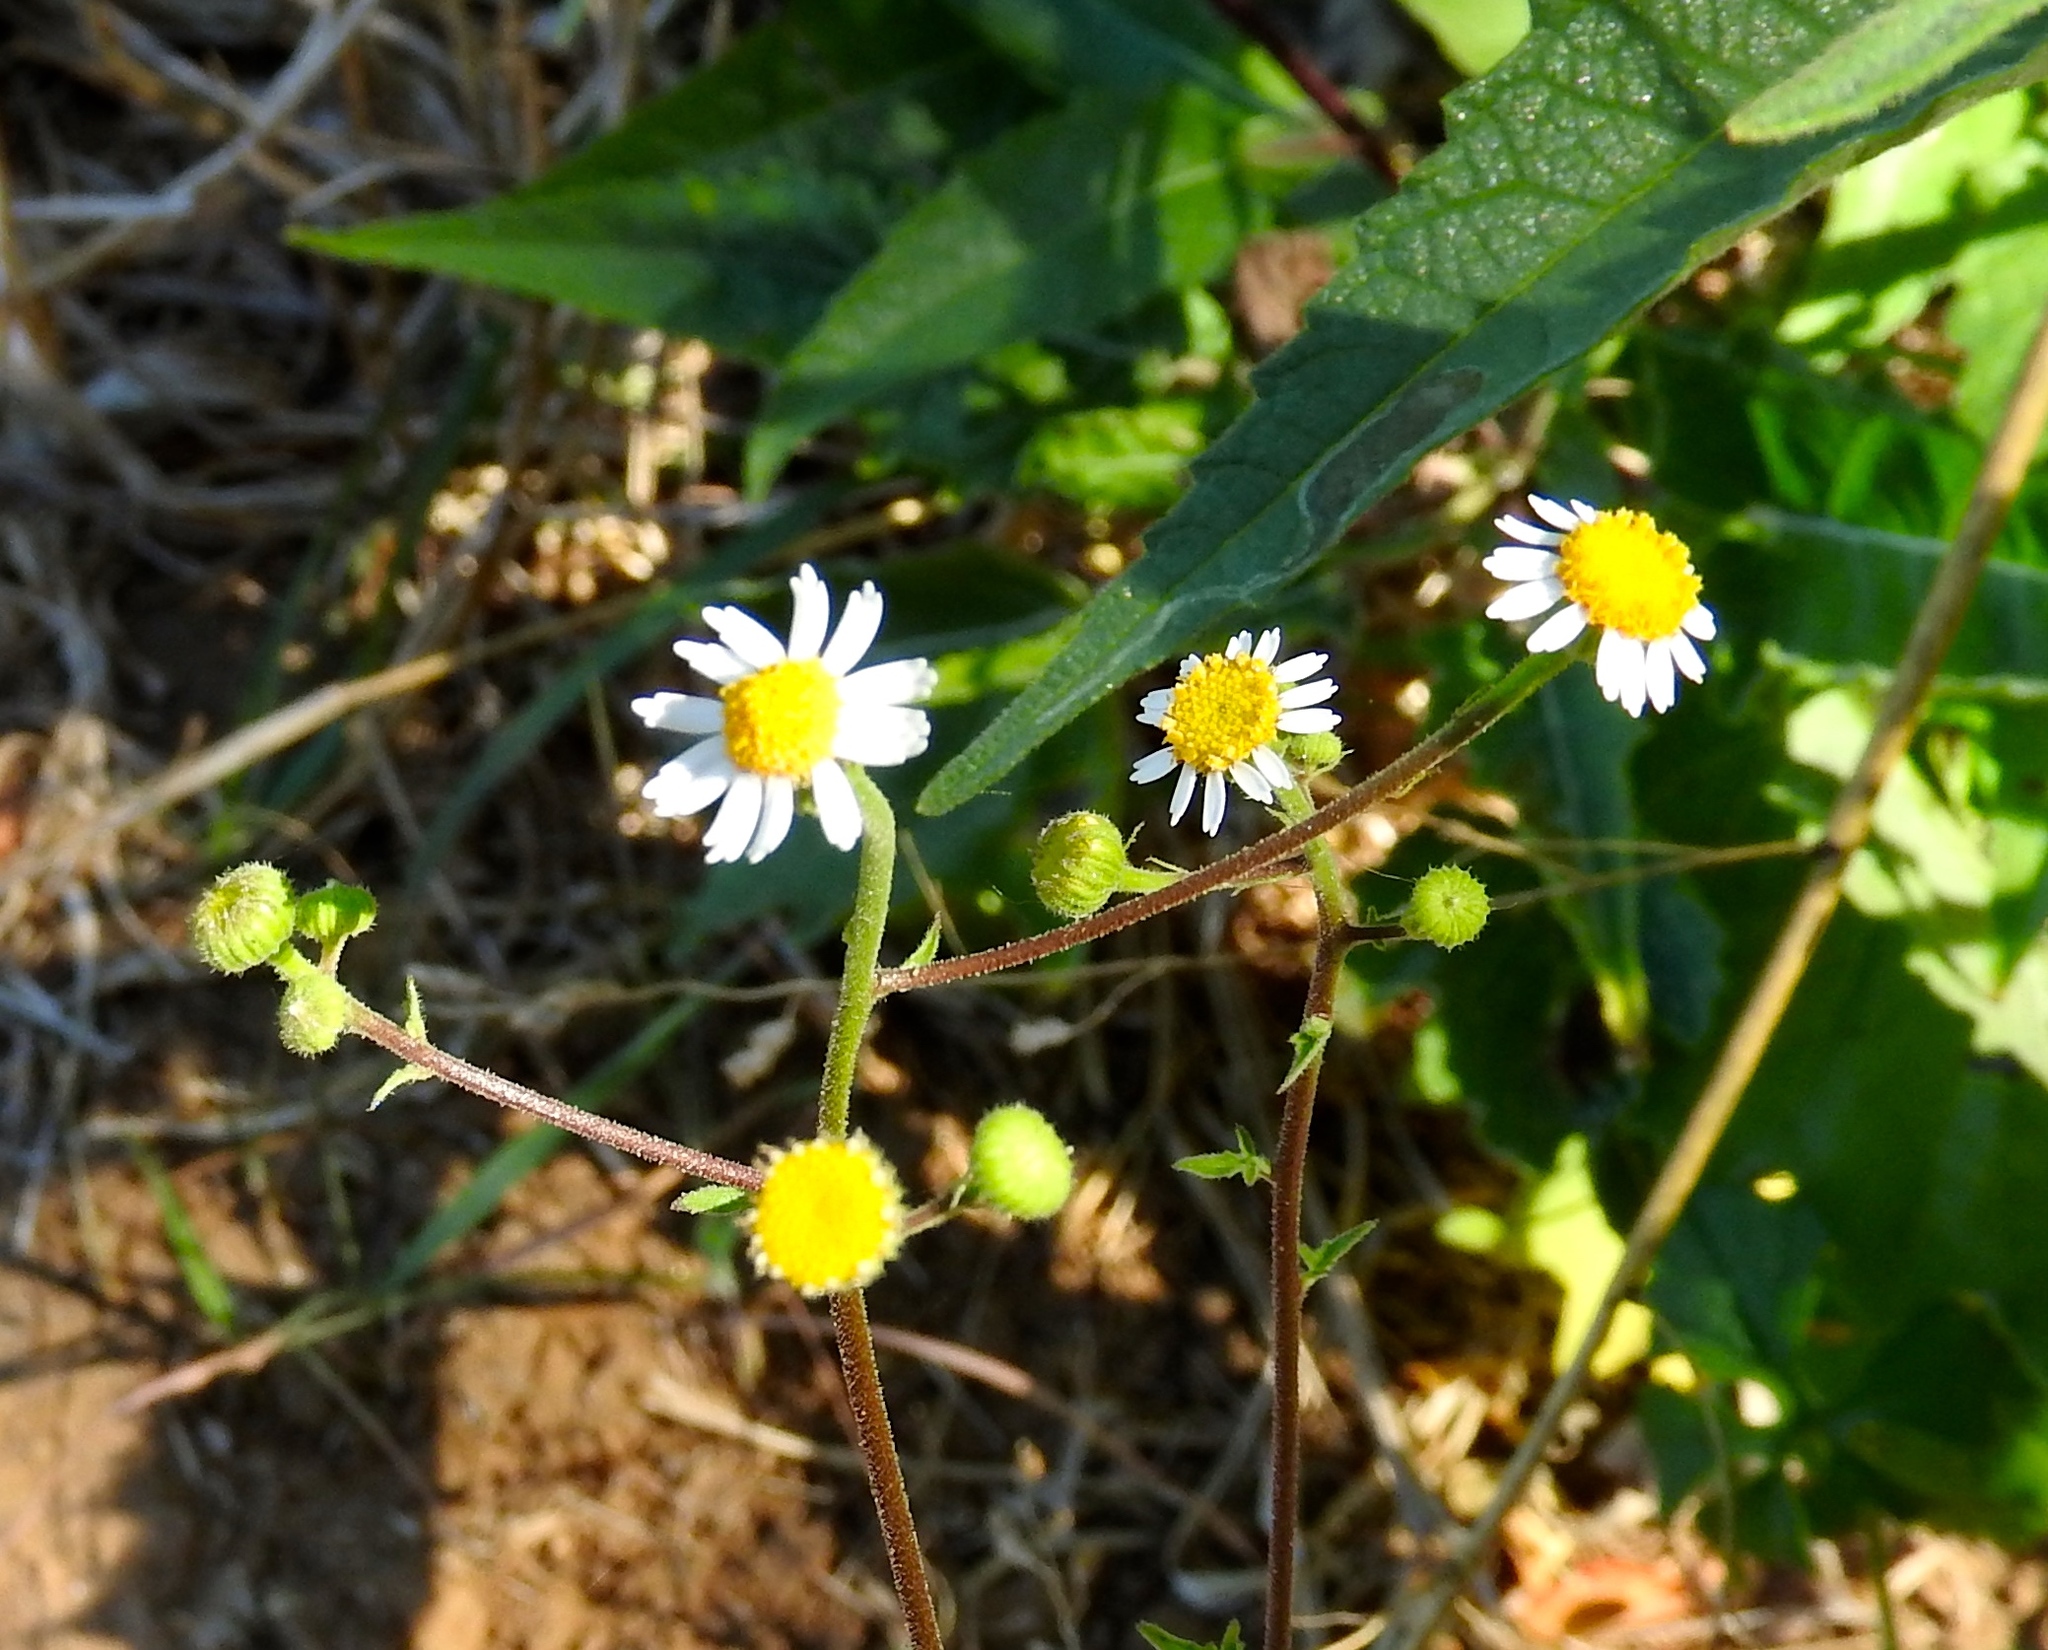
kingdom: Plantae
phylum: Tracheophyta
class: Magnoliopsida
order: Asterales
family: Asteraceae
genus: Galinsogeopsis
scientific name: Galinsogeopsis spilanthoides
